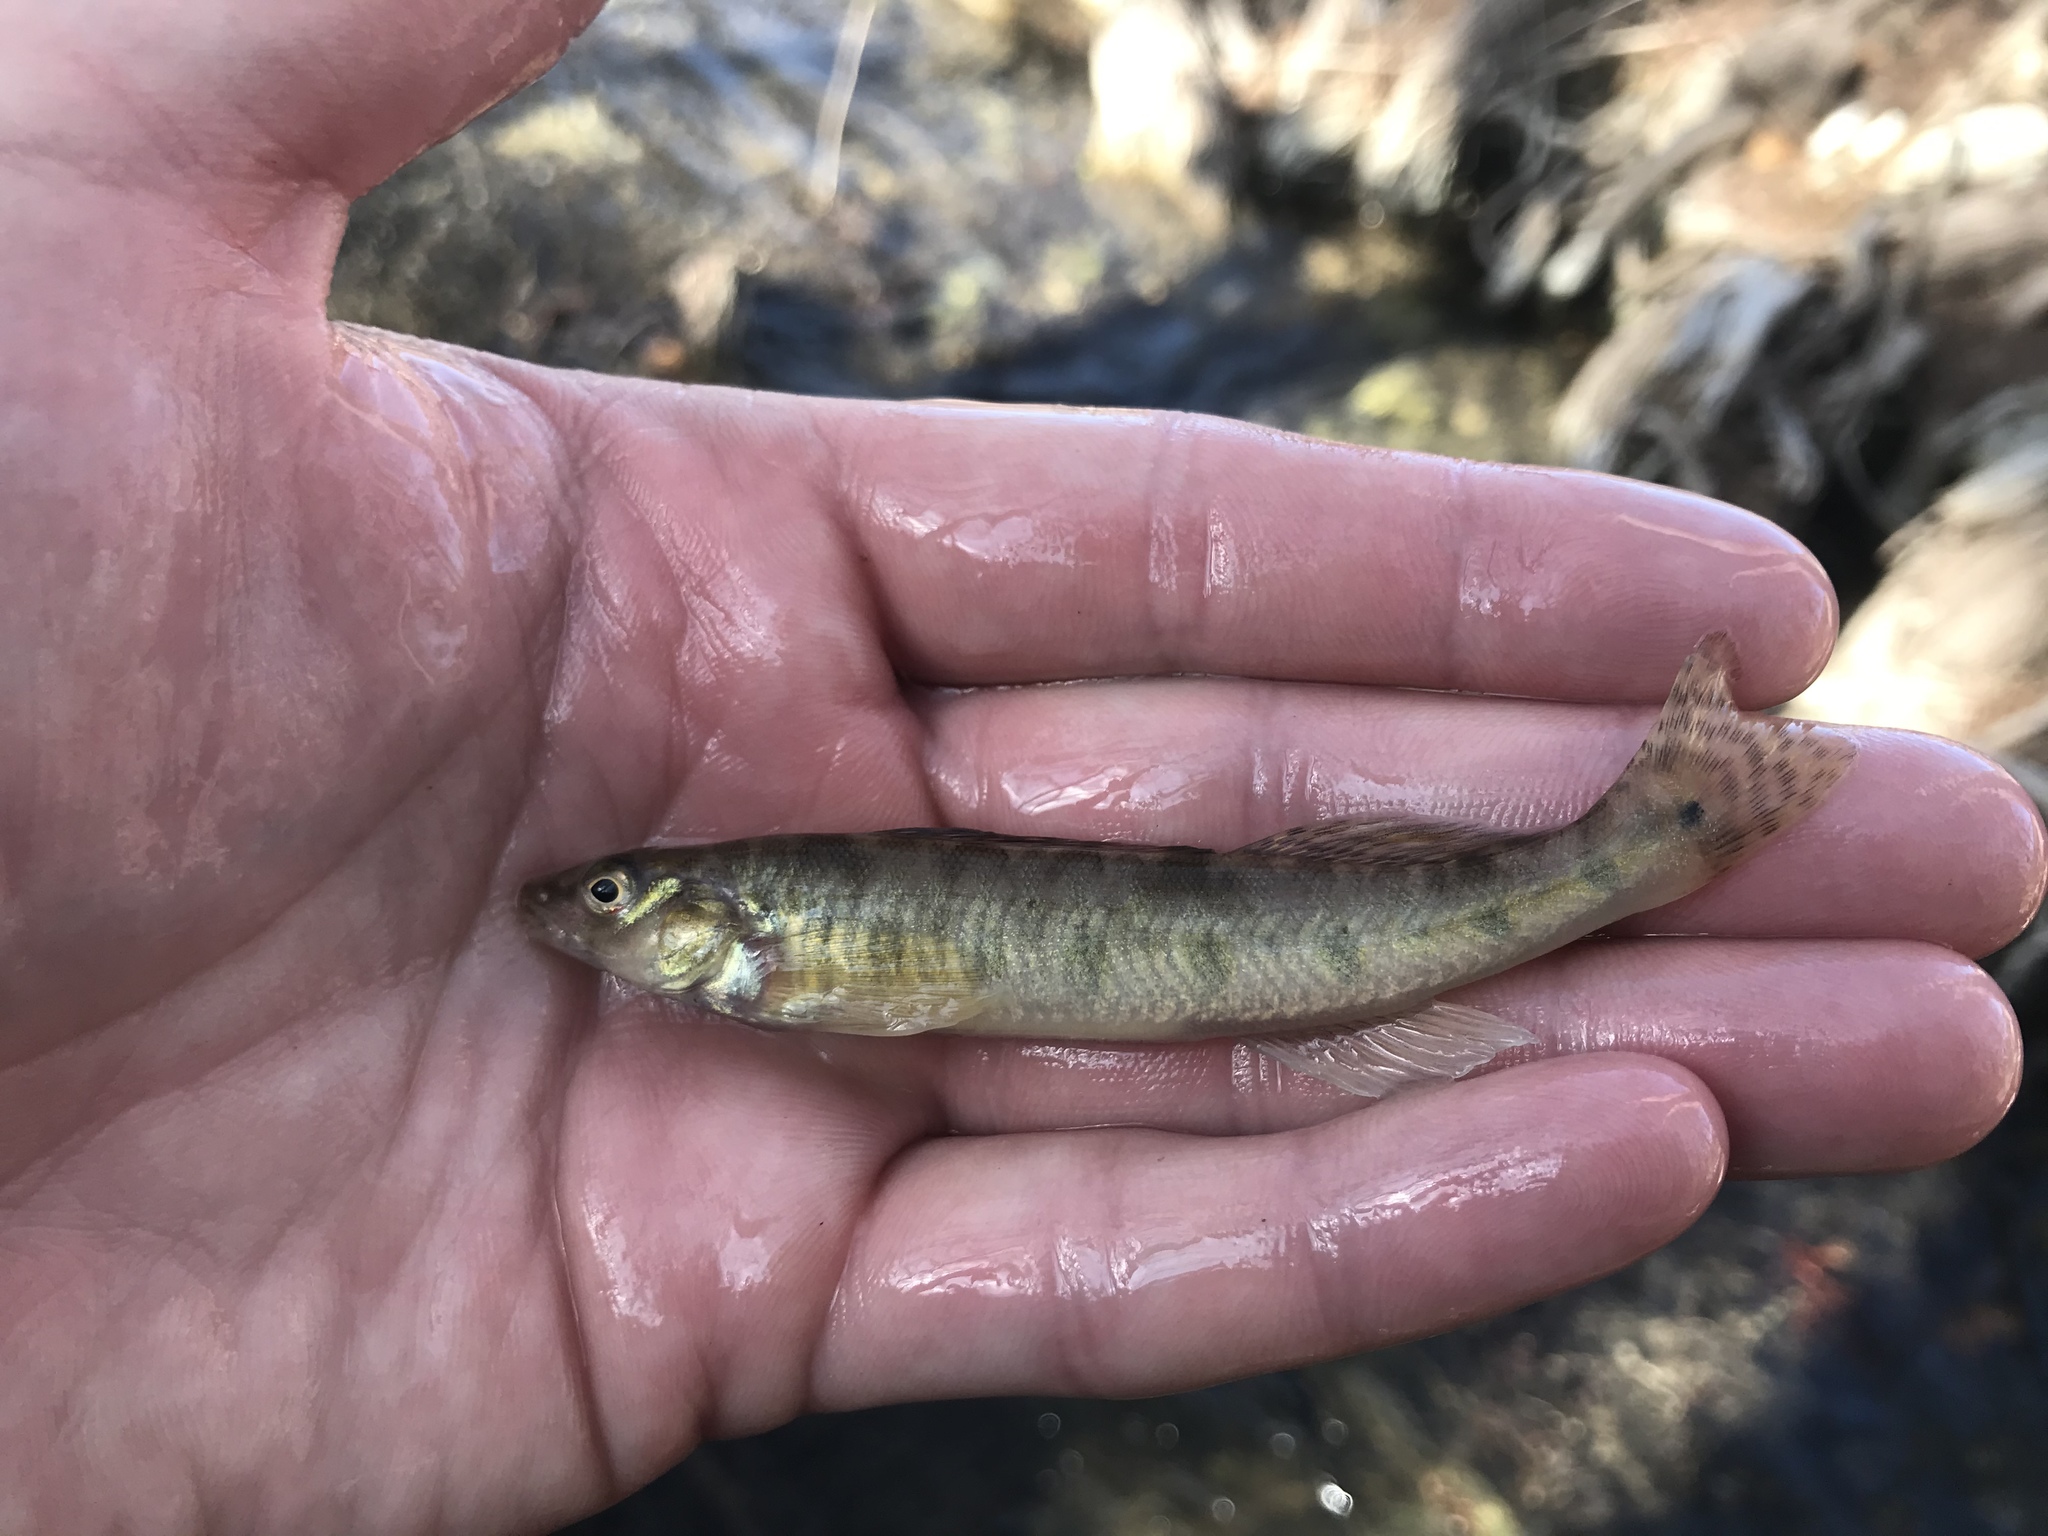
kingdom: Animalia
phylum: Chordata
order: Perciformes
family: Percidae
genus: Percina
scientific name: Percina carbonaria
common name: Texas logperch
